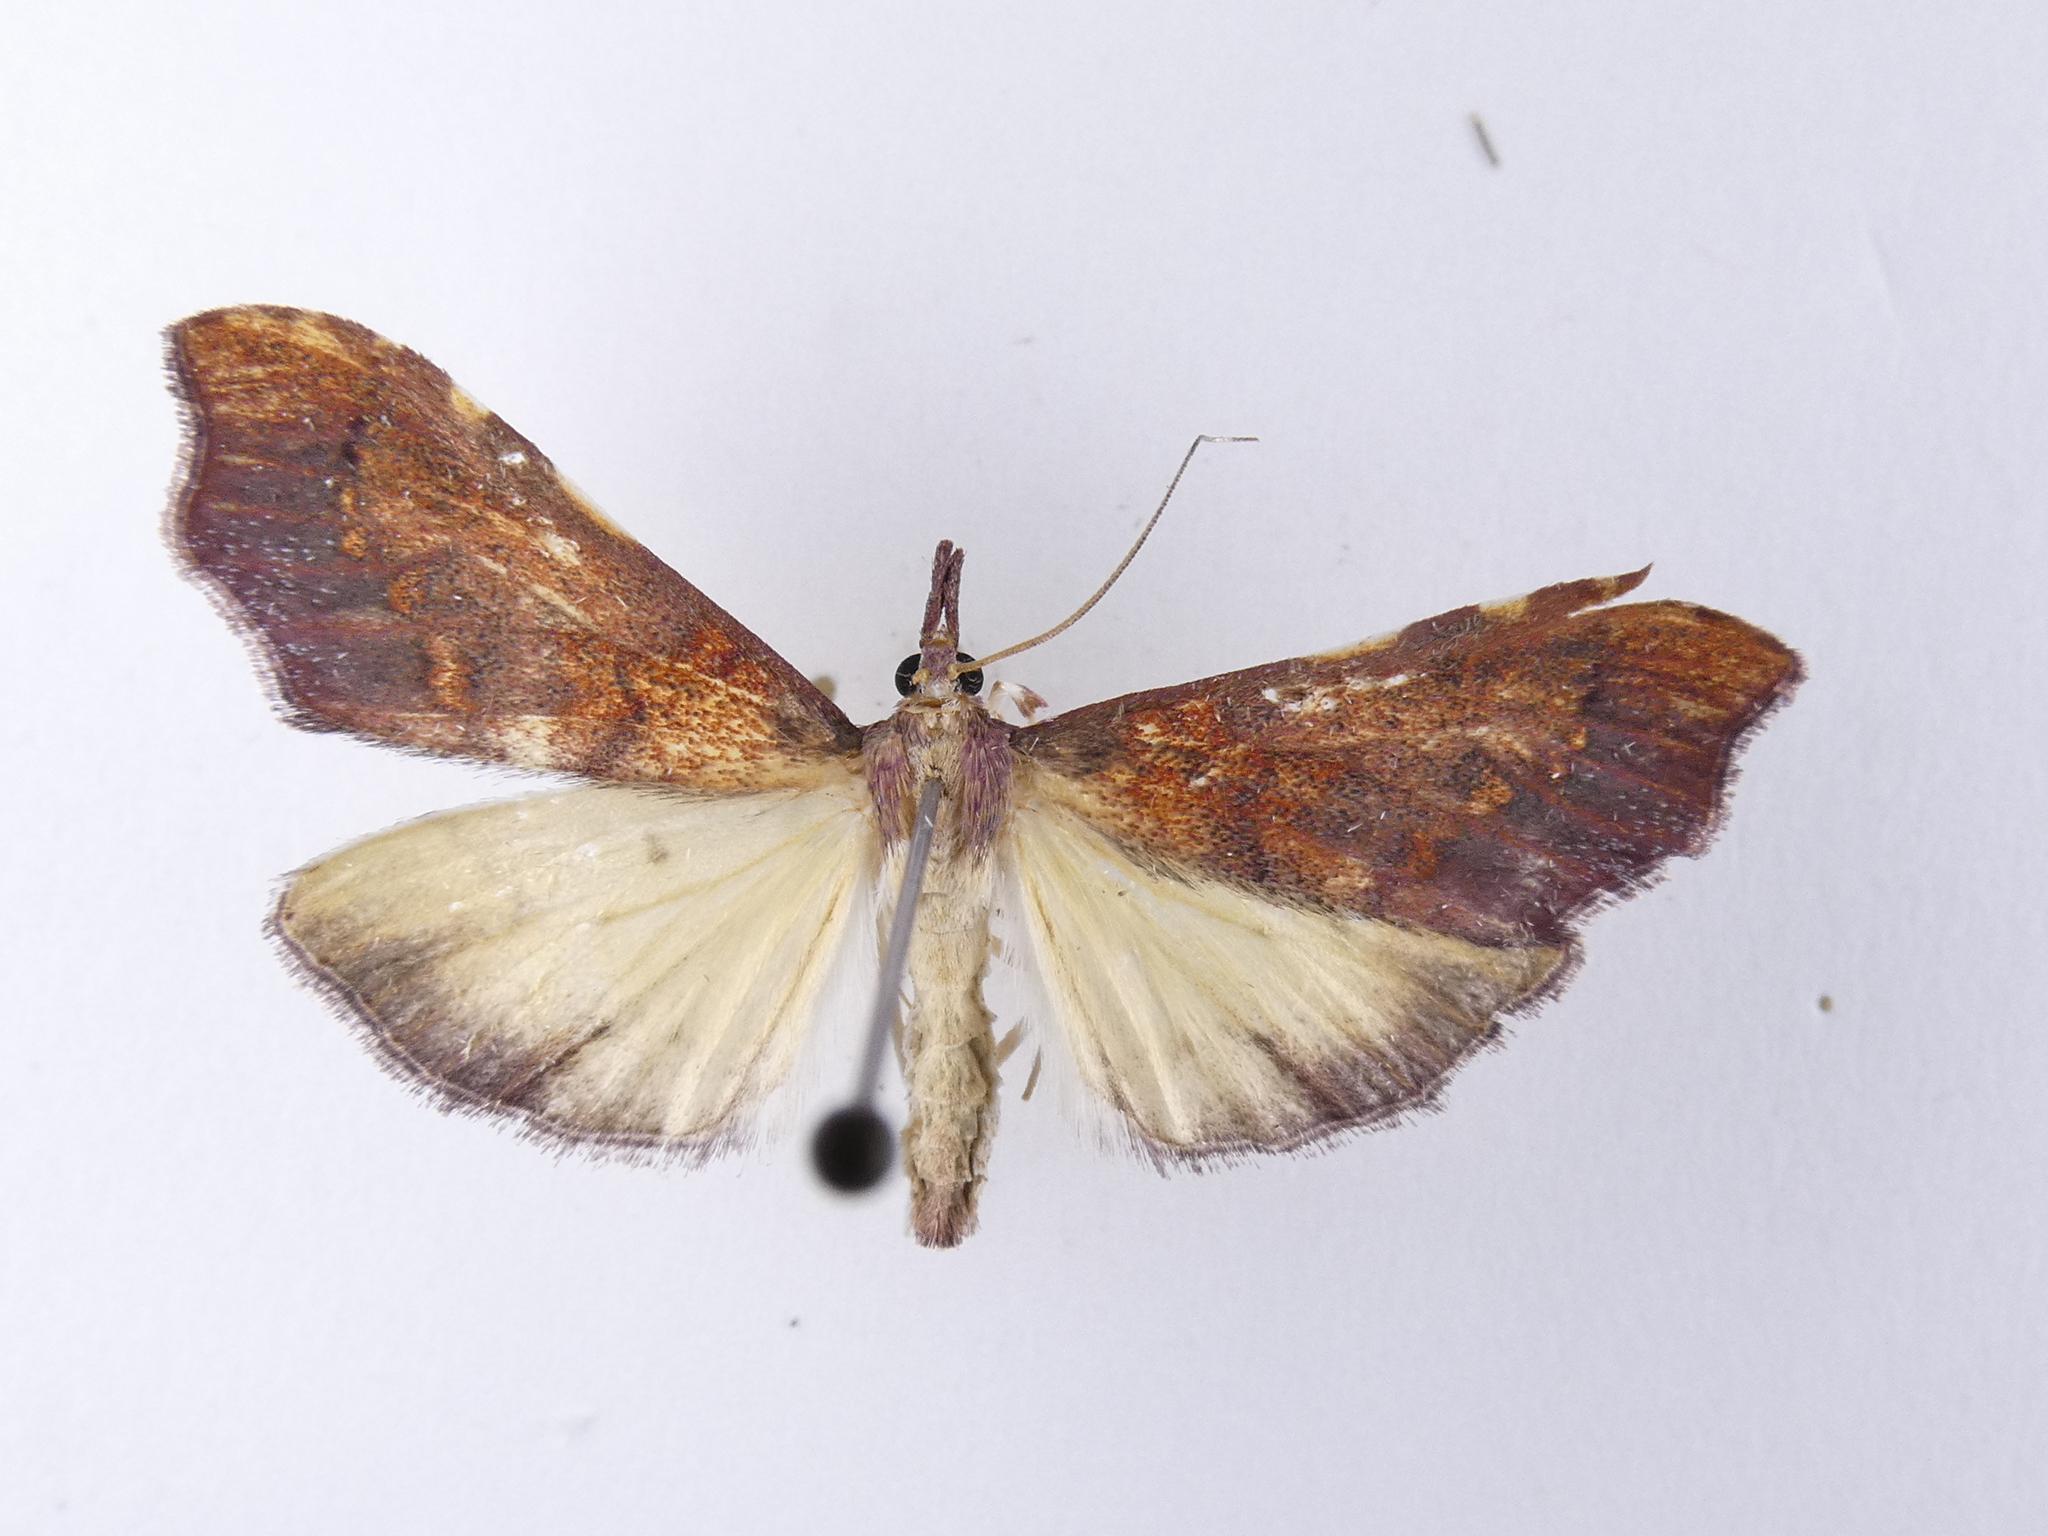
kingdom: Animalia
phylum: Arthropoda
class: Insecta
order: Lepidoptera
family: Crambidae
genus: Deana
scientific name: Deana hybreasalis
